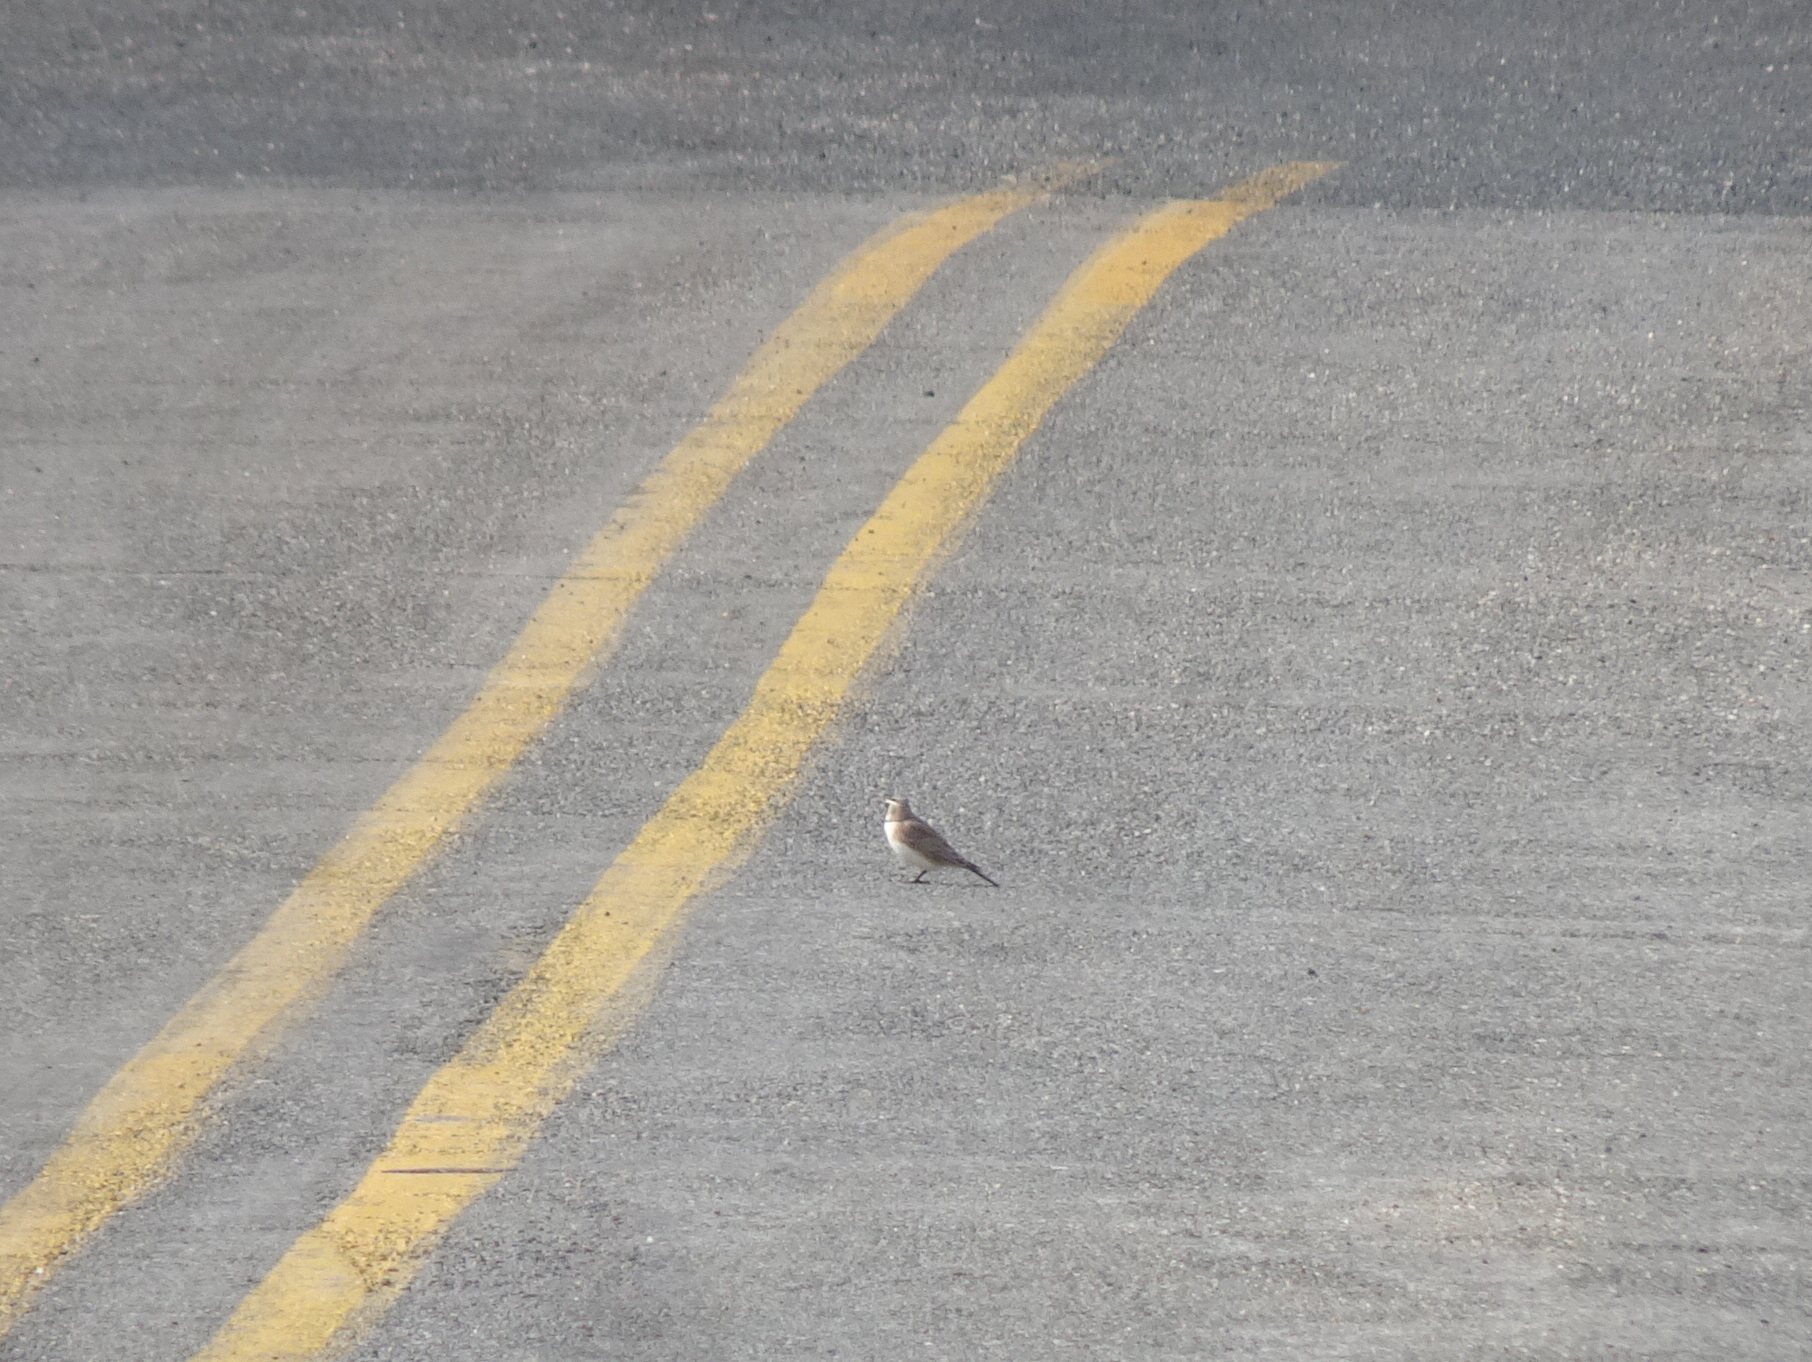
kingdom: Animalia
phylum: Chordata
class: Aves
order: Passeriformes
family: Alaudidae
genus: Eremophila
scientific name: Eremophila alpestris
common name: Horned lark
